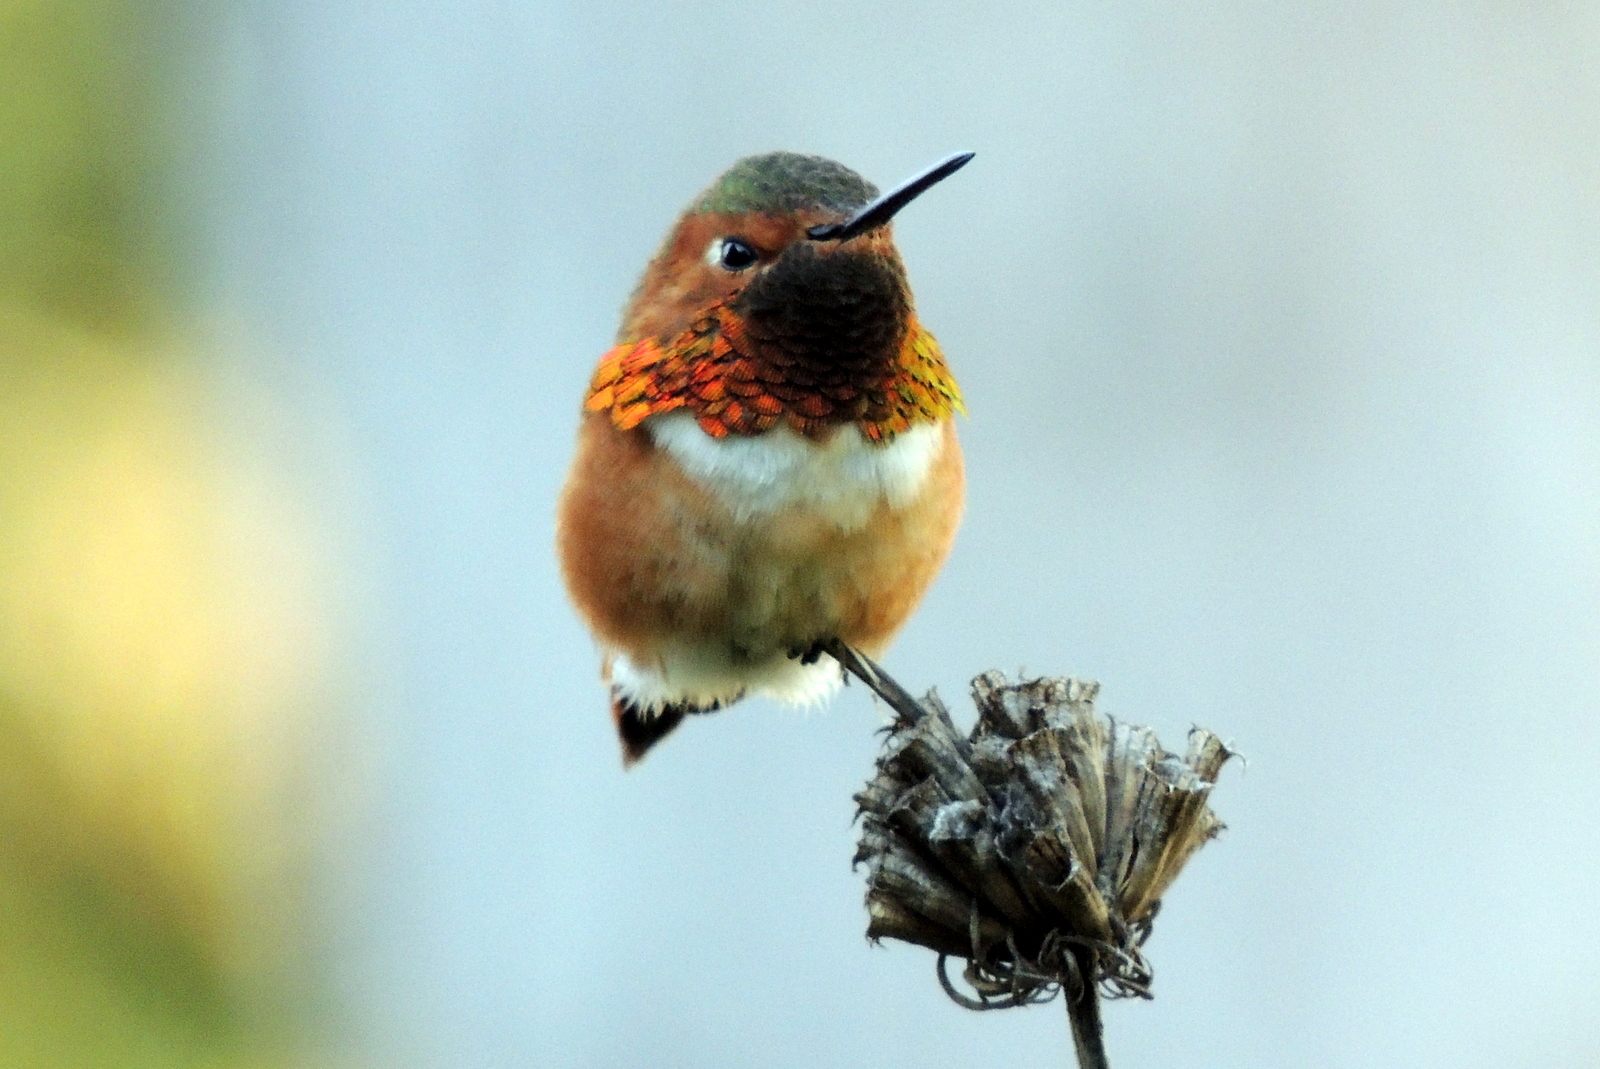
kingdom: Animalia
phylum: Chordata
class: Aves
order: Apodiformes
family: Trochilidae
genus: Selasphorus
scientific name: Selasphorus sasin
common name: Allen's hummingbird
